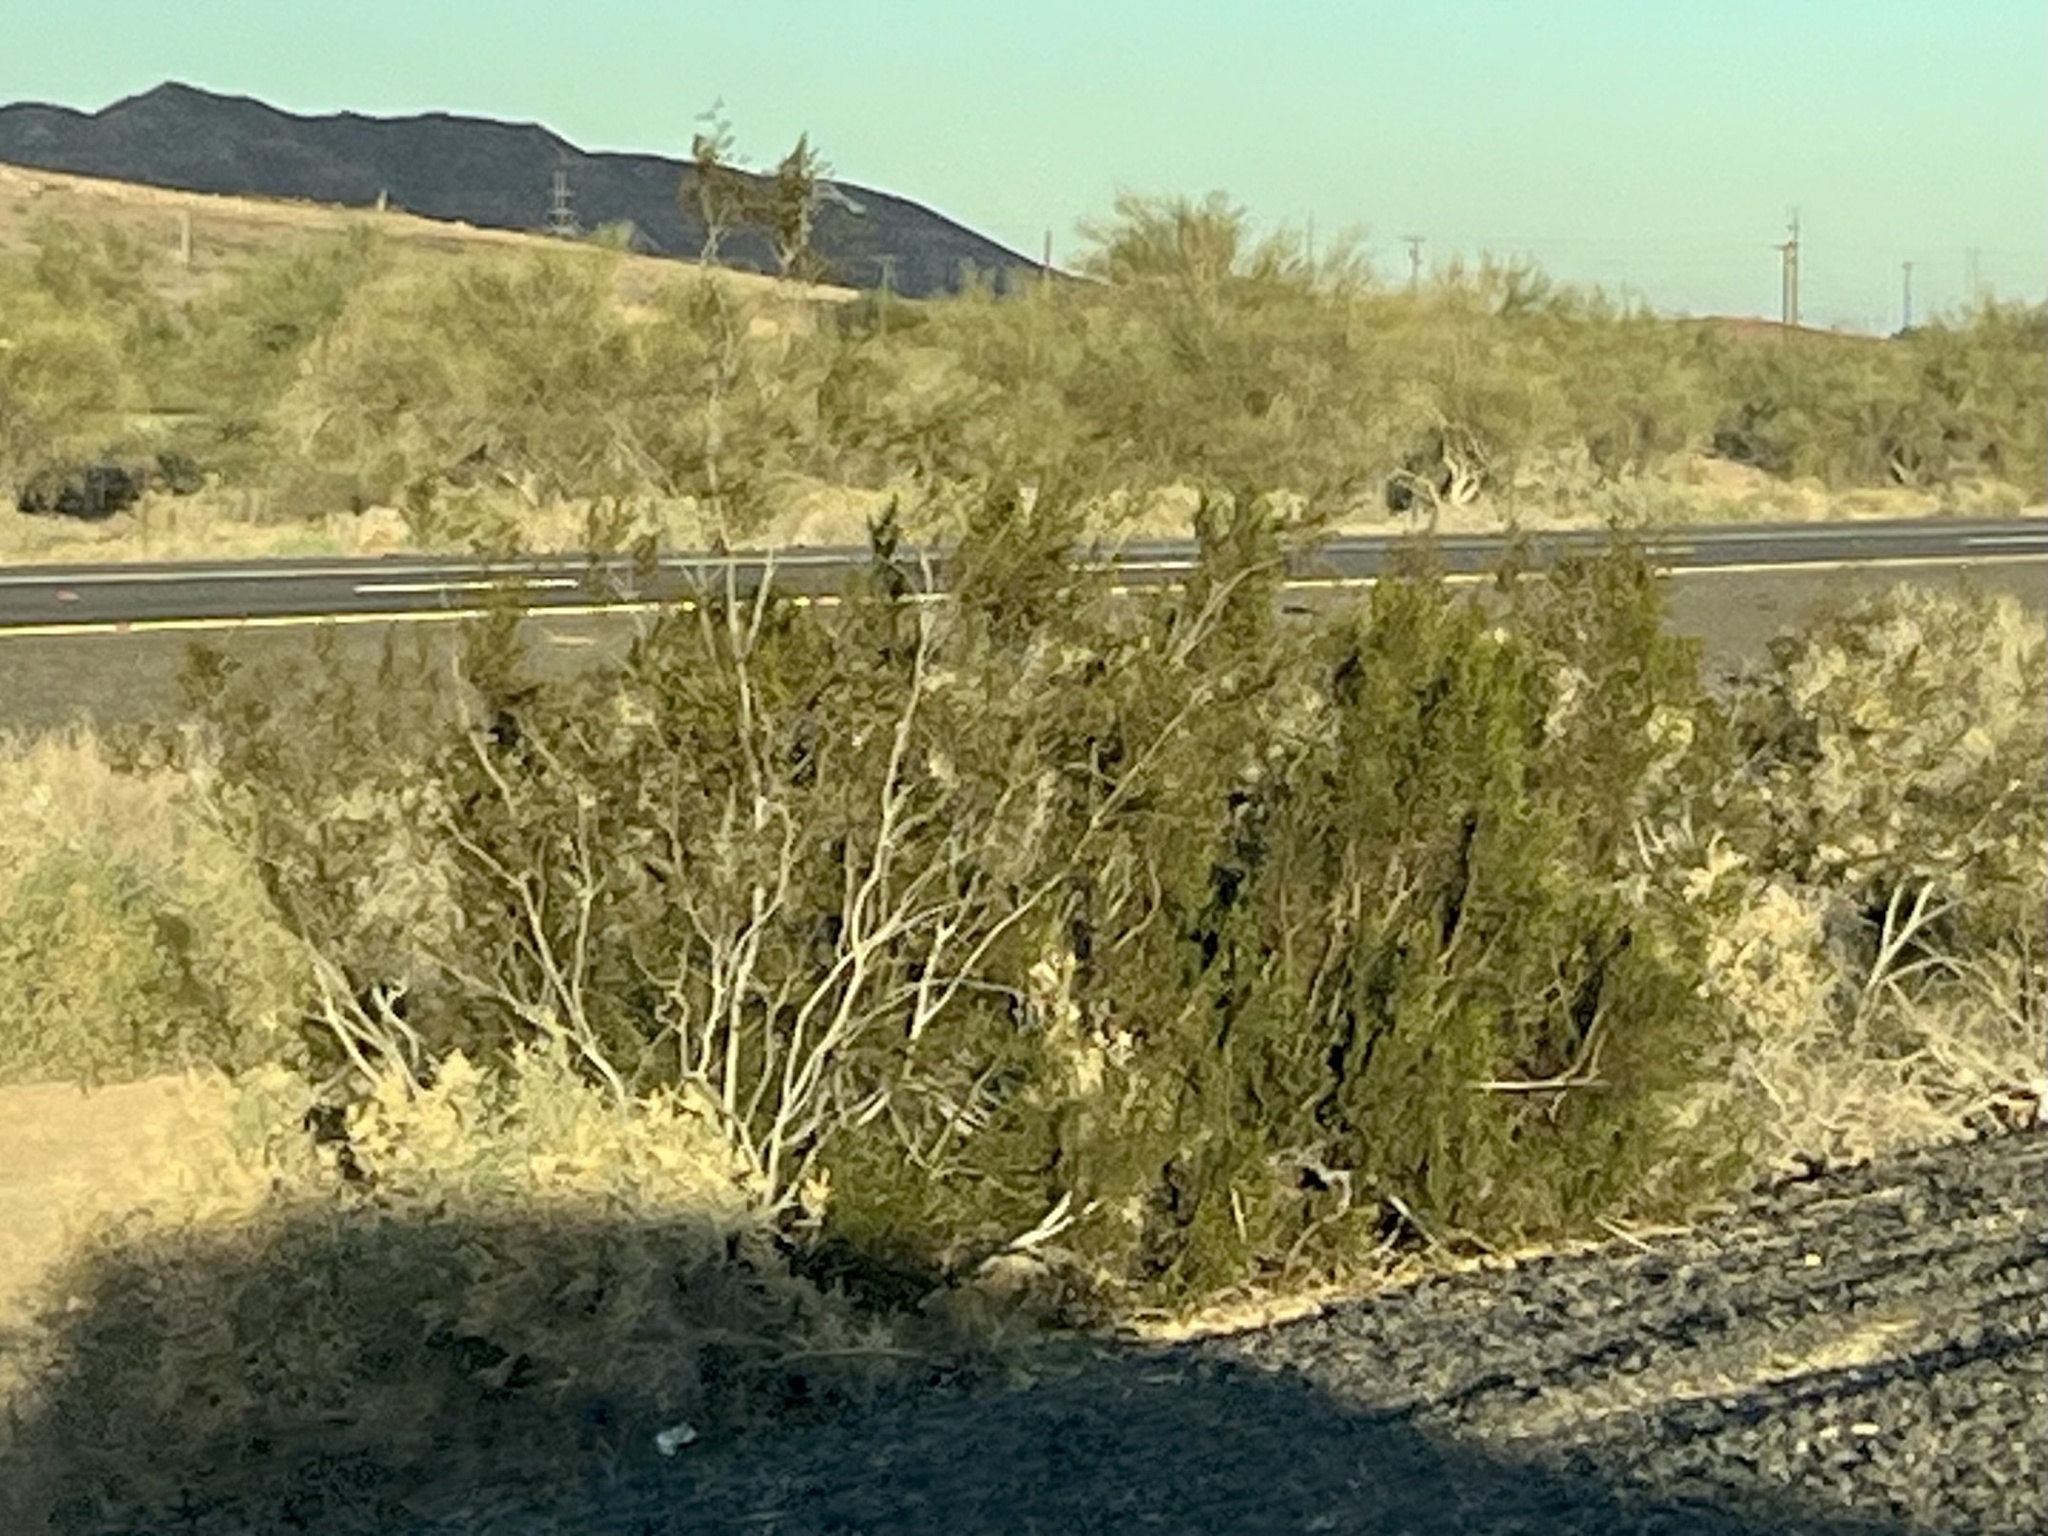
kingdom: Plantae
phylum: Tracheophyta
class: Magnoliopsida
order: Zygophyllales
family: Zygophyllaceae
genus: Larrea
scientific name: Larrea tridentata
